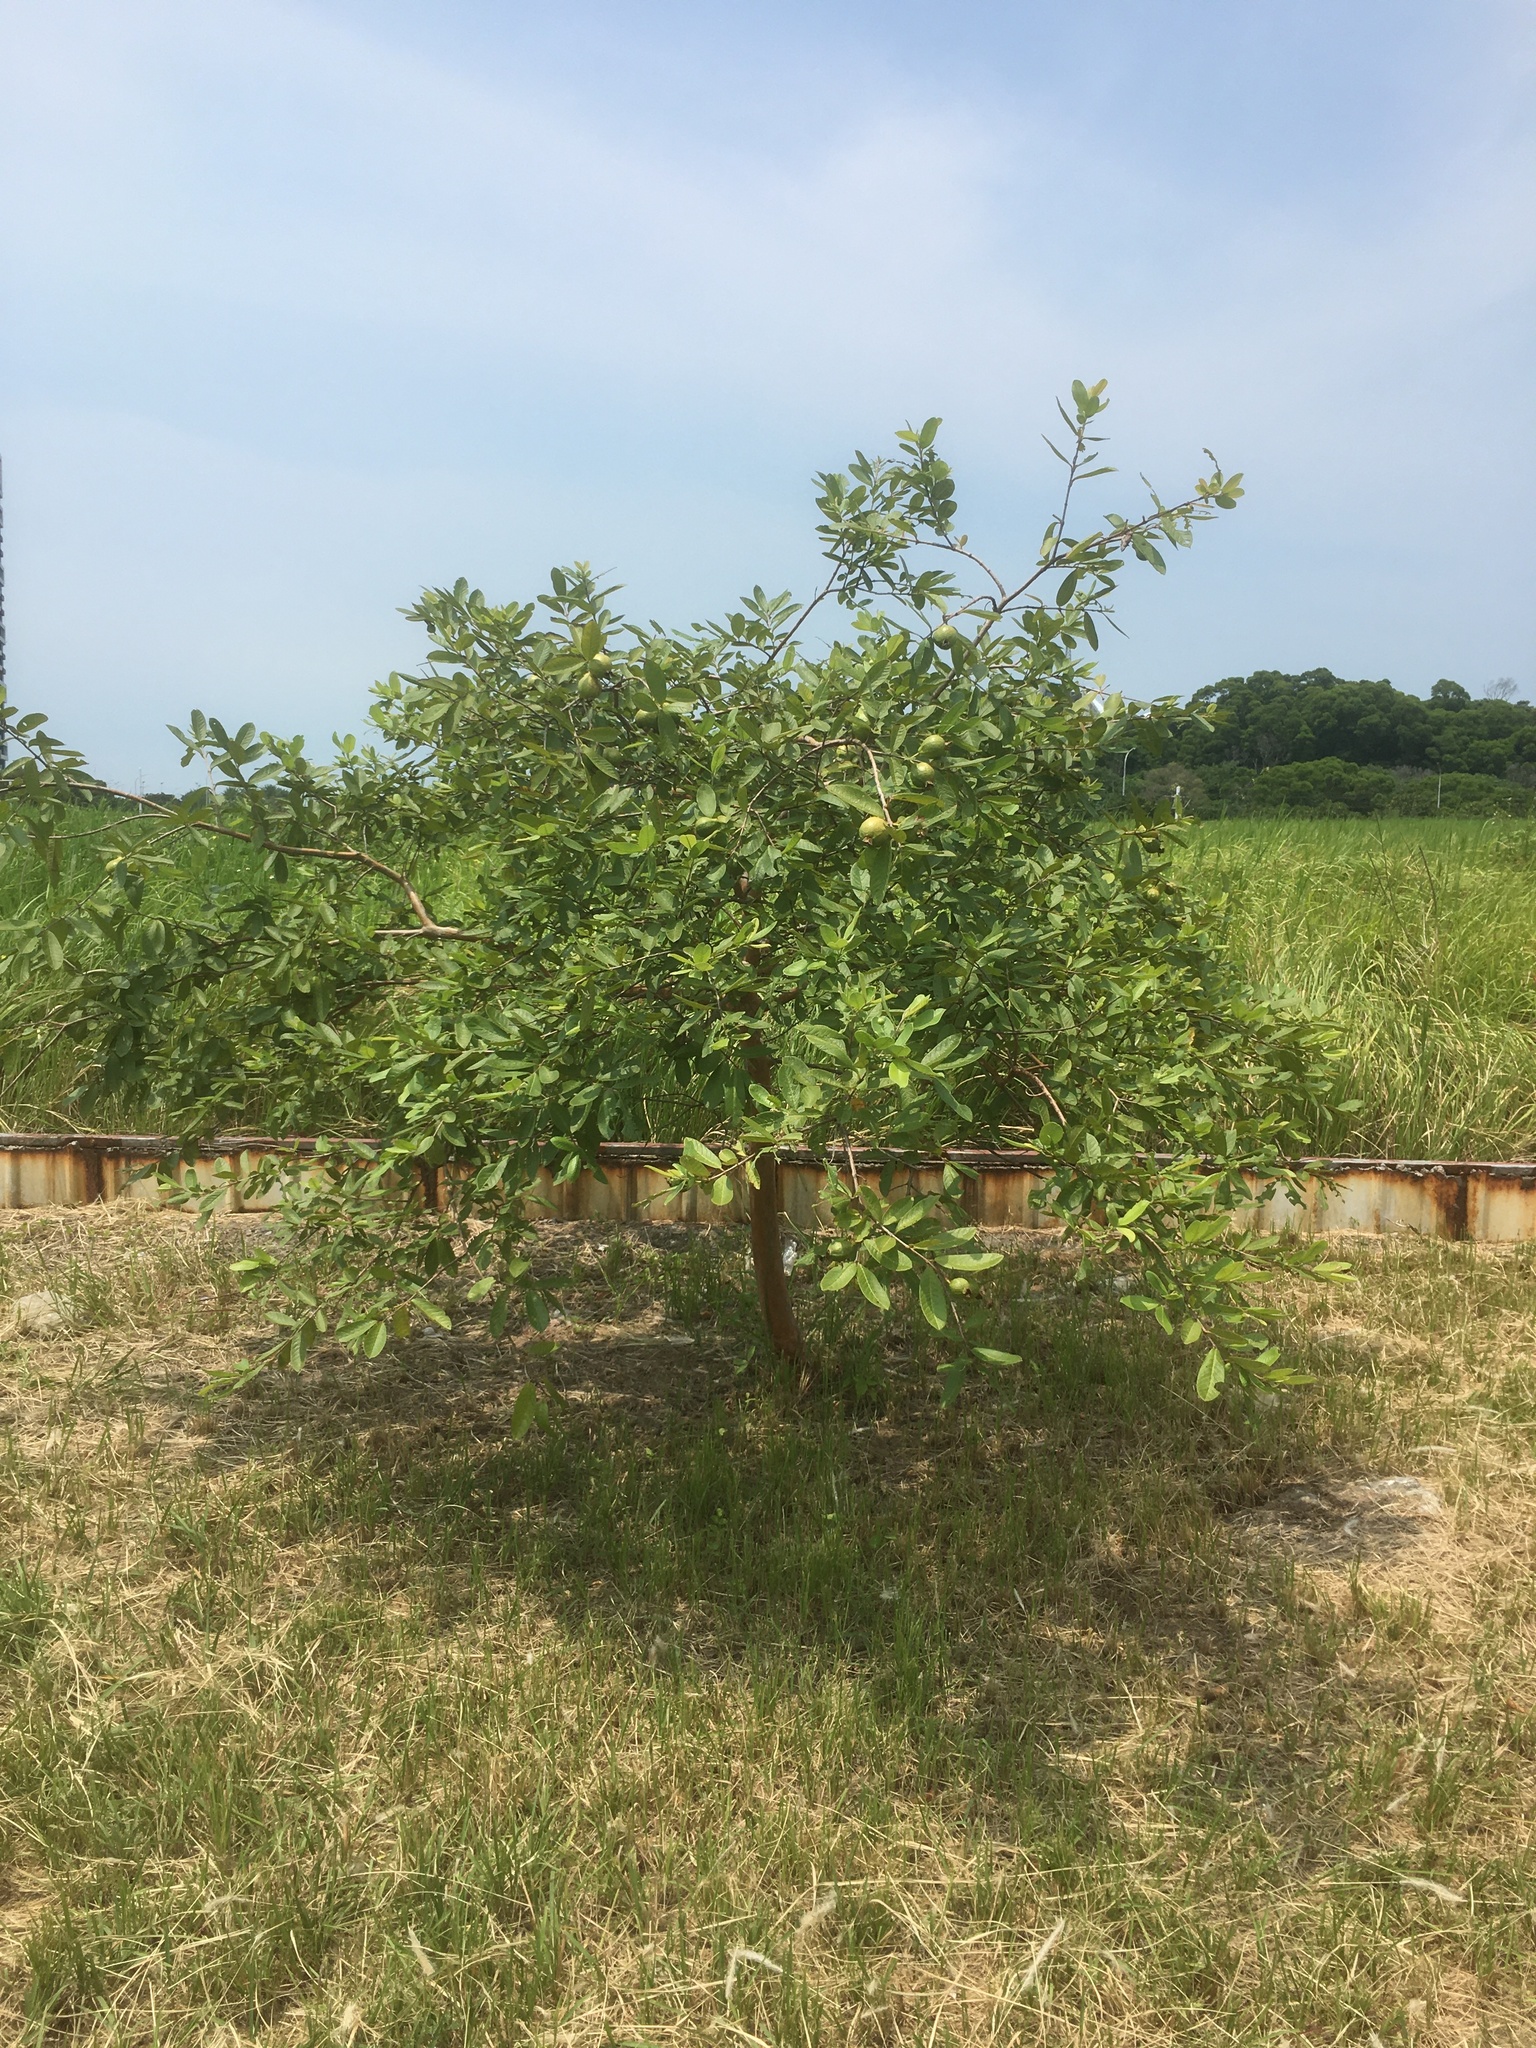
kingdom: Plantae
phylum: Tracheophyta
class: Magnoliopsida
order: Myrtales
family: Myrtaceae
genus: Psidium
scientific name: Psidium guajava
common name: Guava
